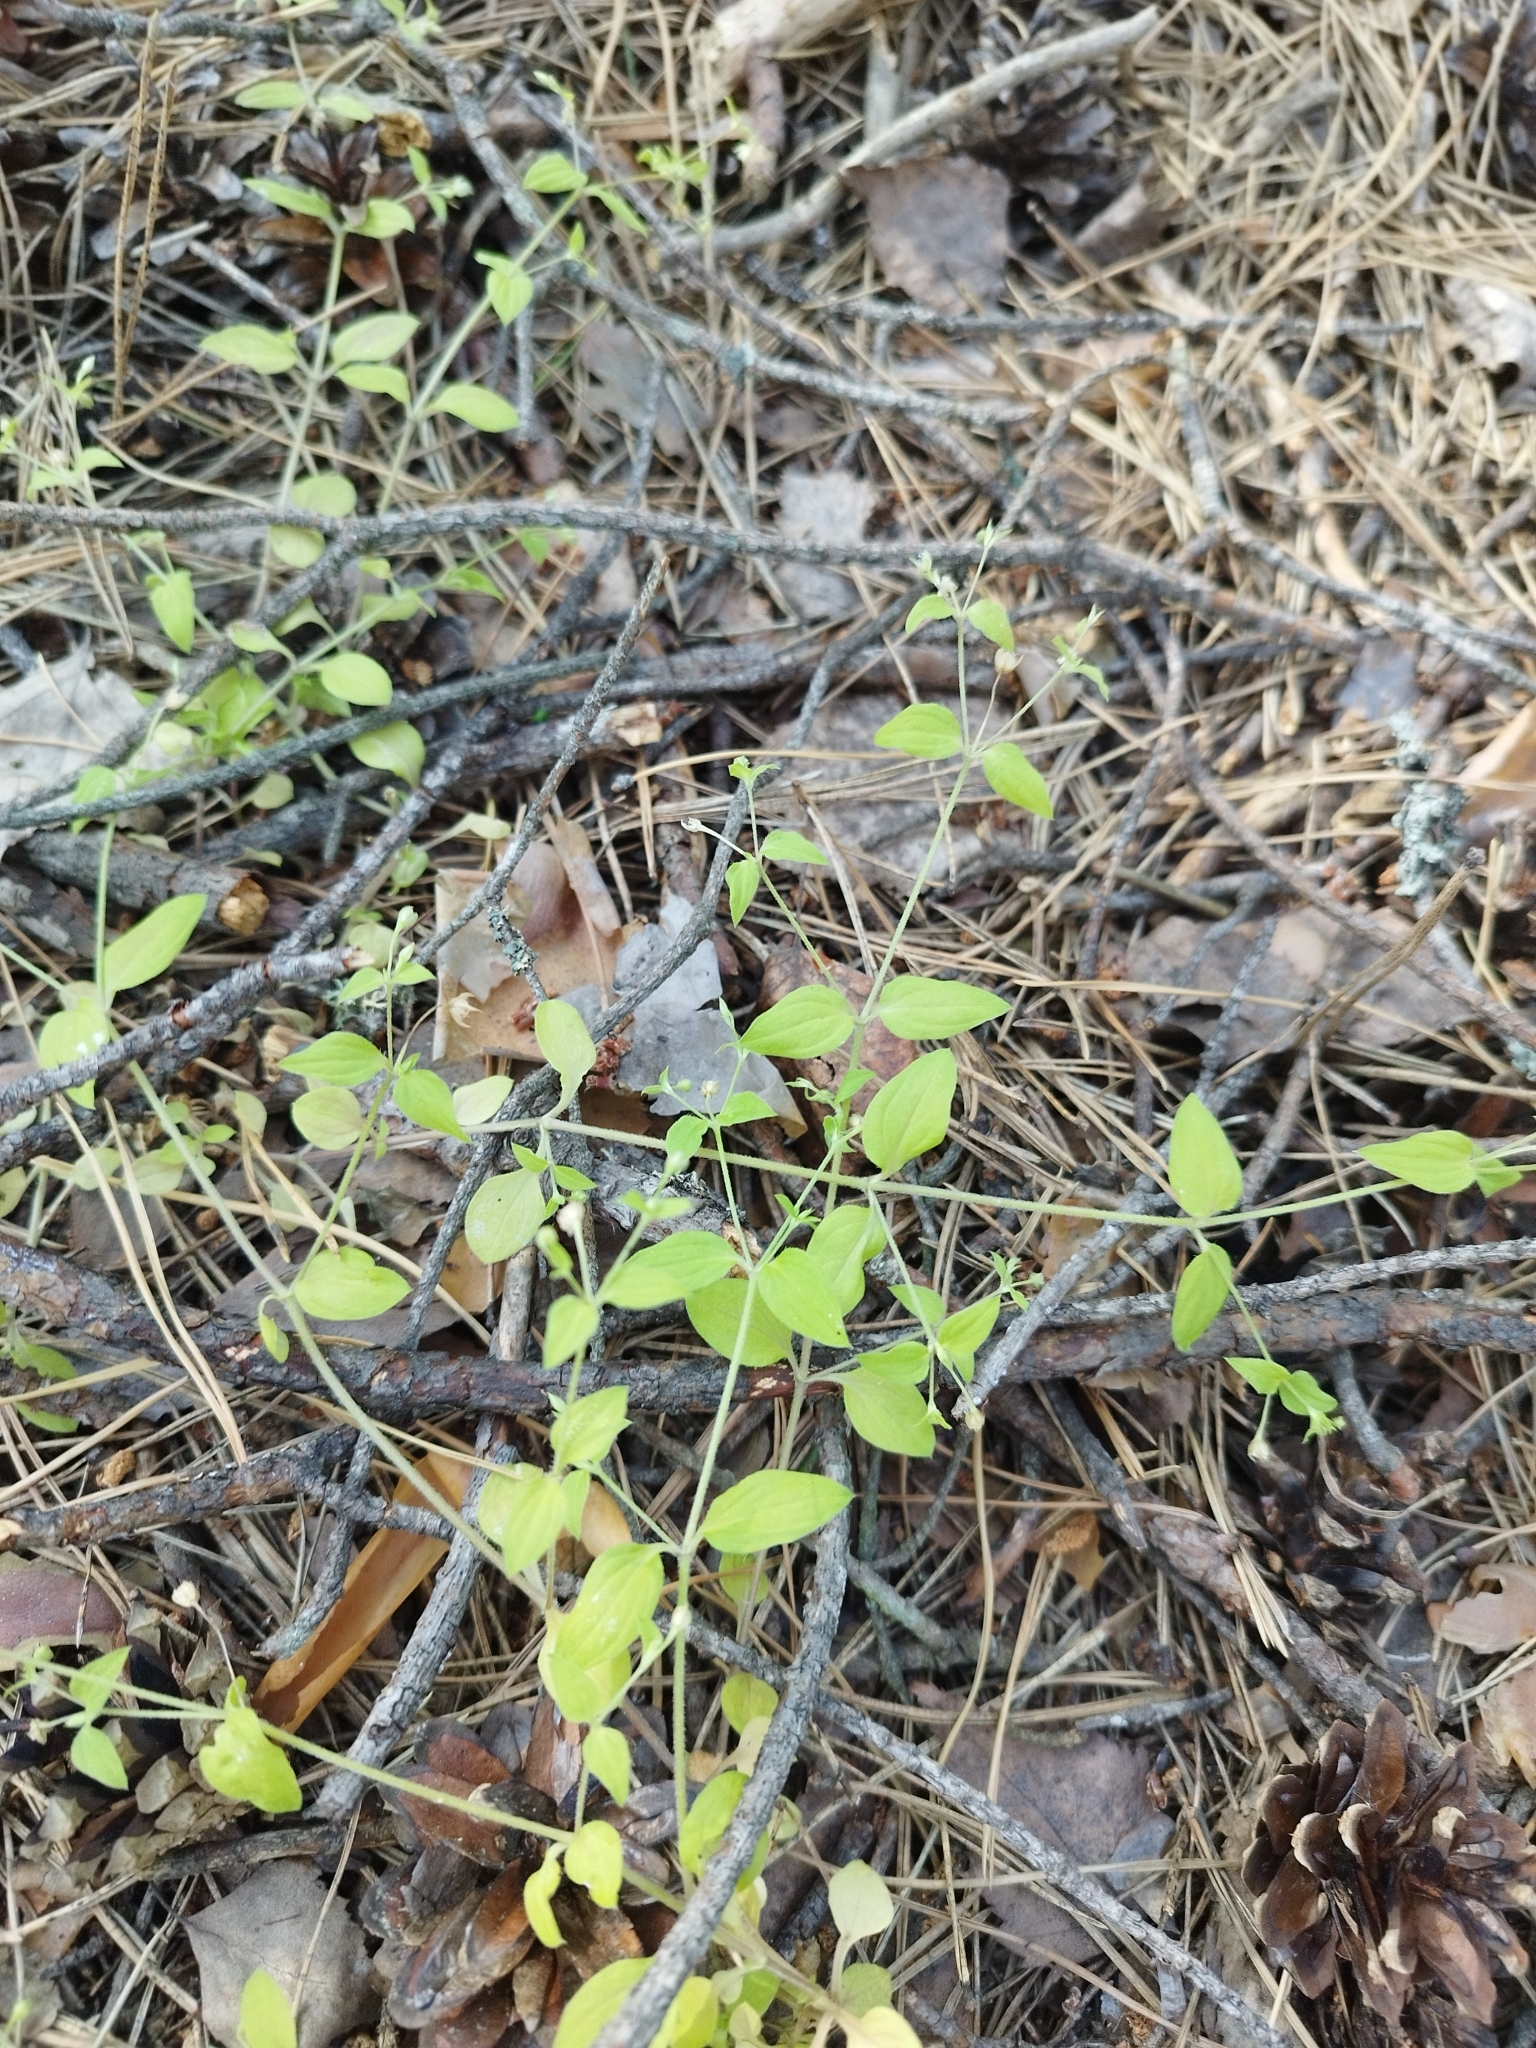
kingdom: Plantae
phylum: Tracheophyta
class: Magnoliopsida
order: Caryophyllales
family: Caryophyllaceae
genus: Moehringia
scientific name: Moehringia trinervia
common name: Three-nerved sandwort
